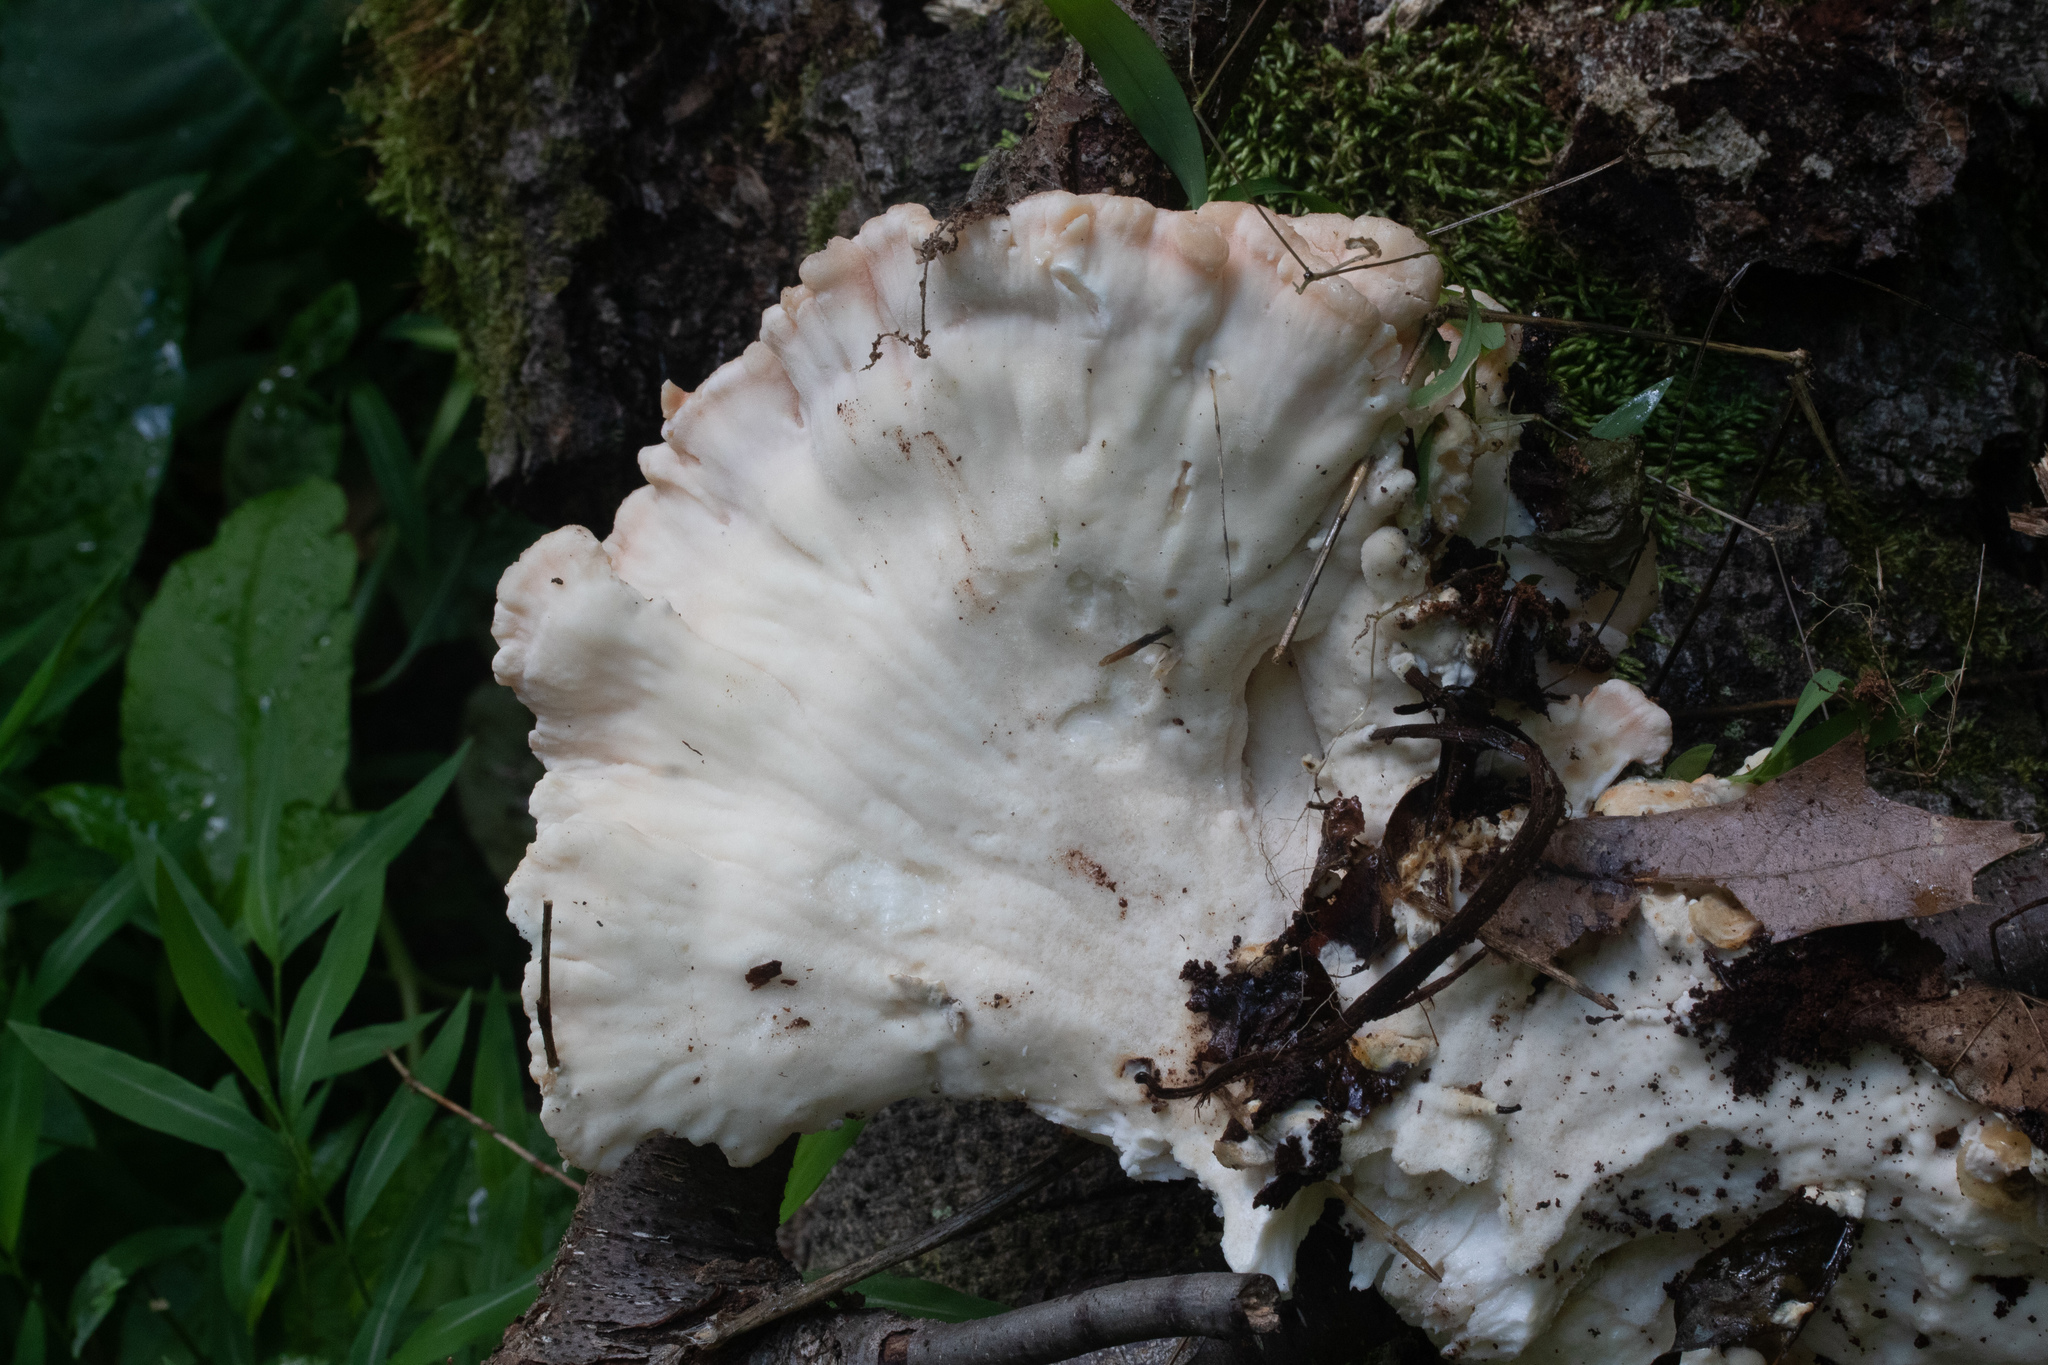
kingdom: Fungi
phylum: Basidiomycota
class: Agaricomycetes
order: Polyporales
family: Laetiporaceae
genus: Laetiporus
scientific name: Laetiporus sulphureus
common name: Chicken of the woods
